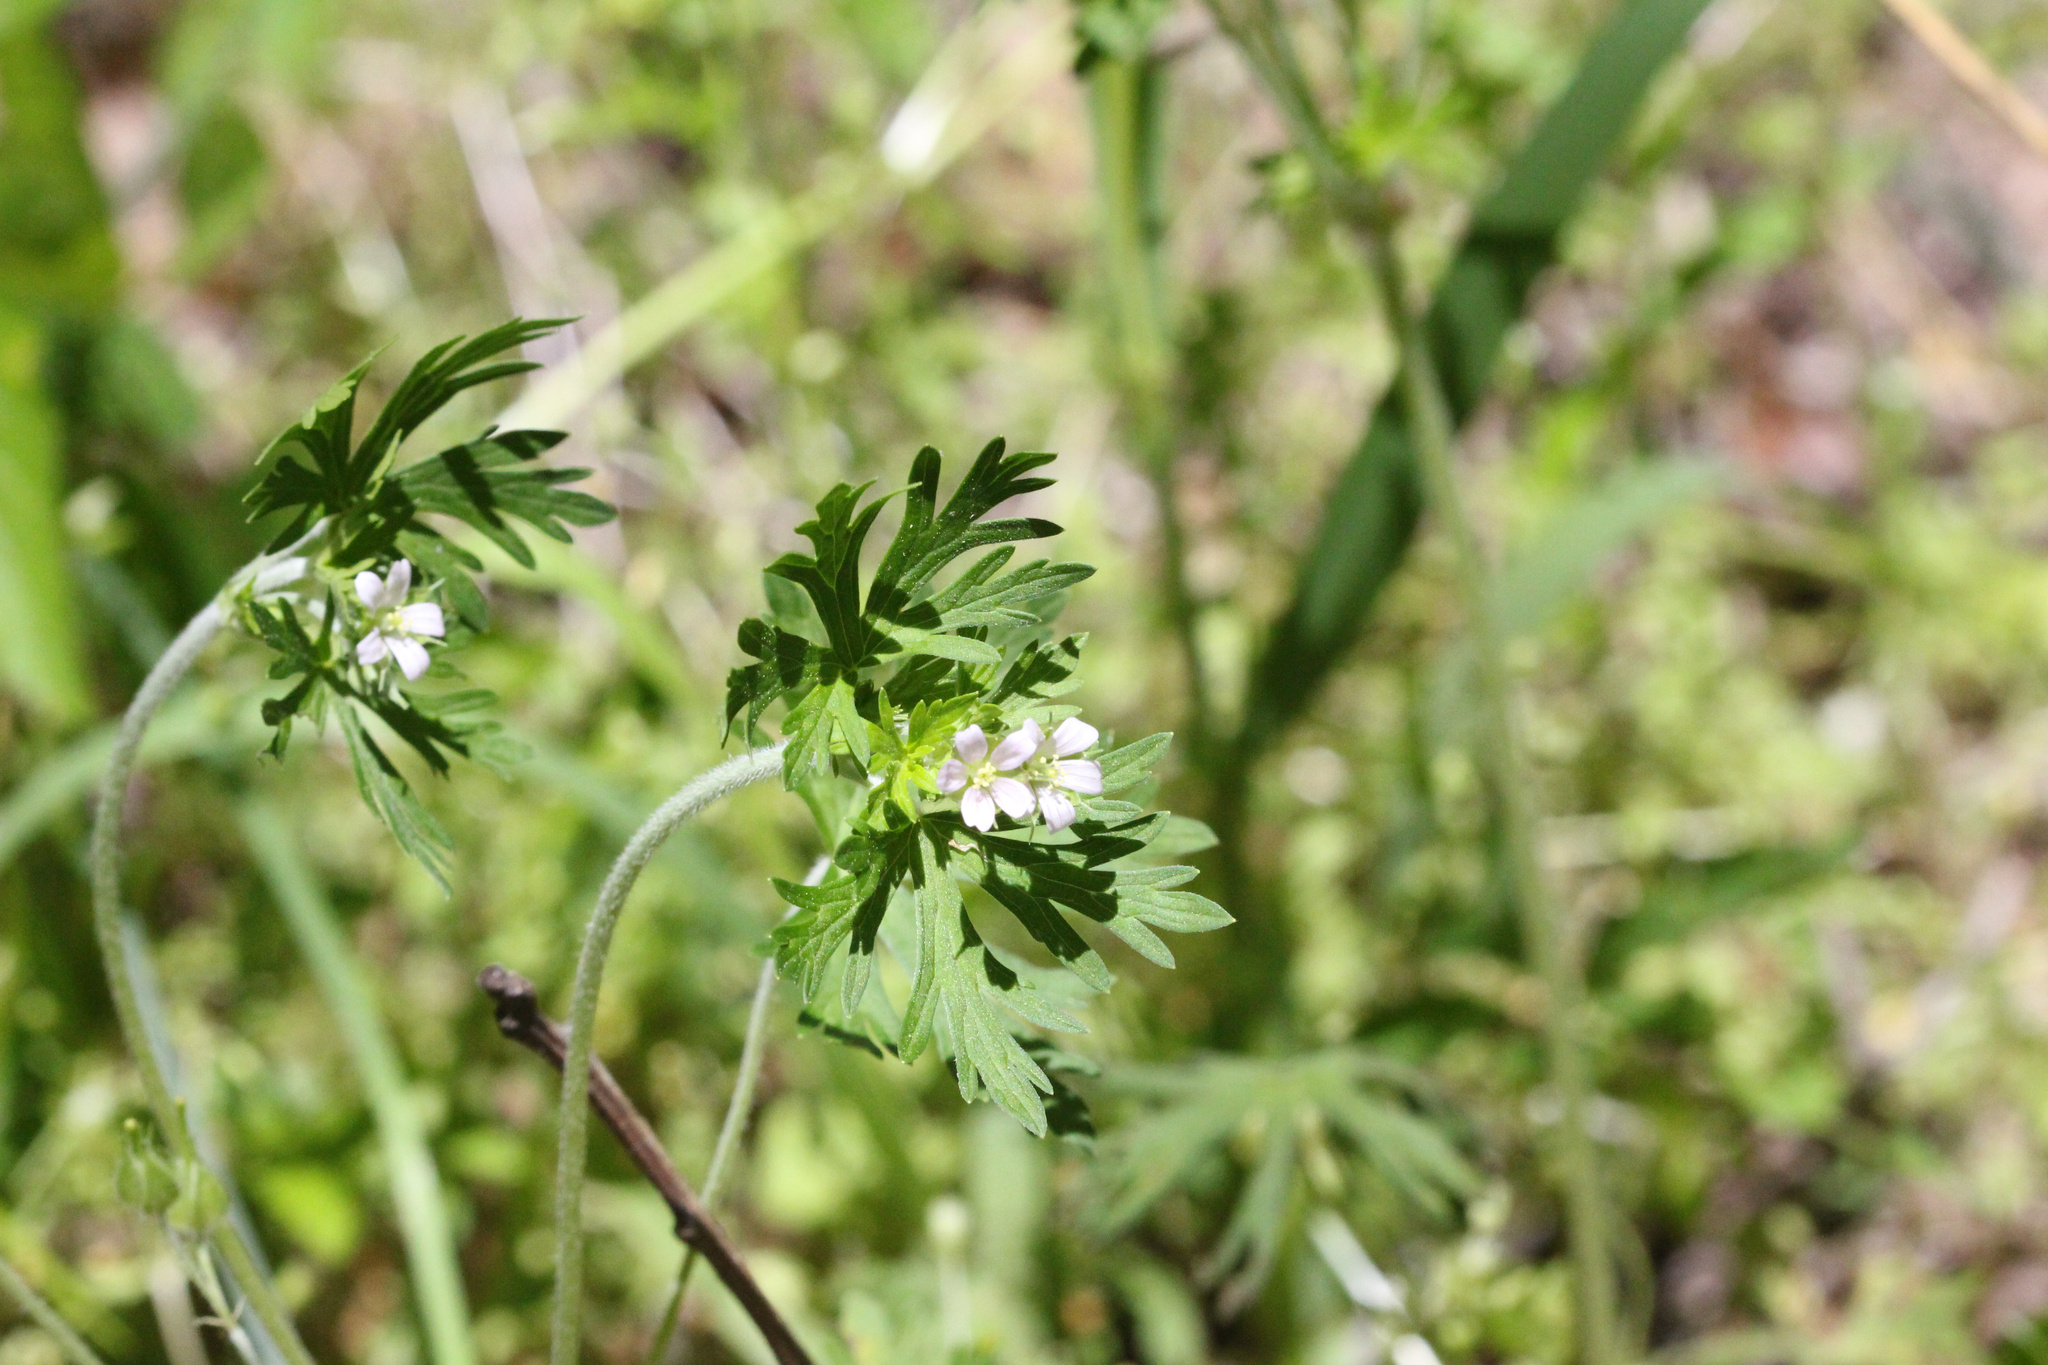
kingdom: Plantae
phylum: Tracheophyta
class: Magnoliopsida
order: Geraniales
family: Geraniaceae
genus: Geranium
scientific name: Geranium carolinianum
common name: Carolina crane's-bill
